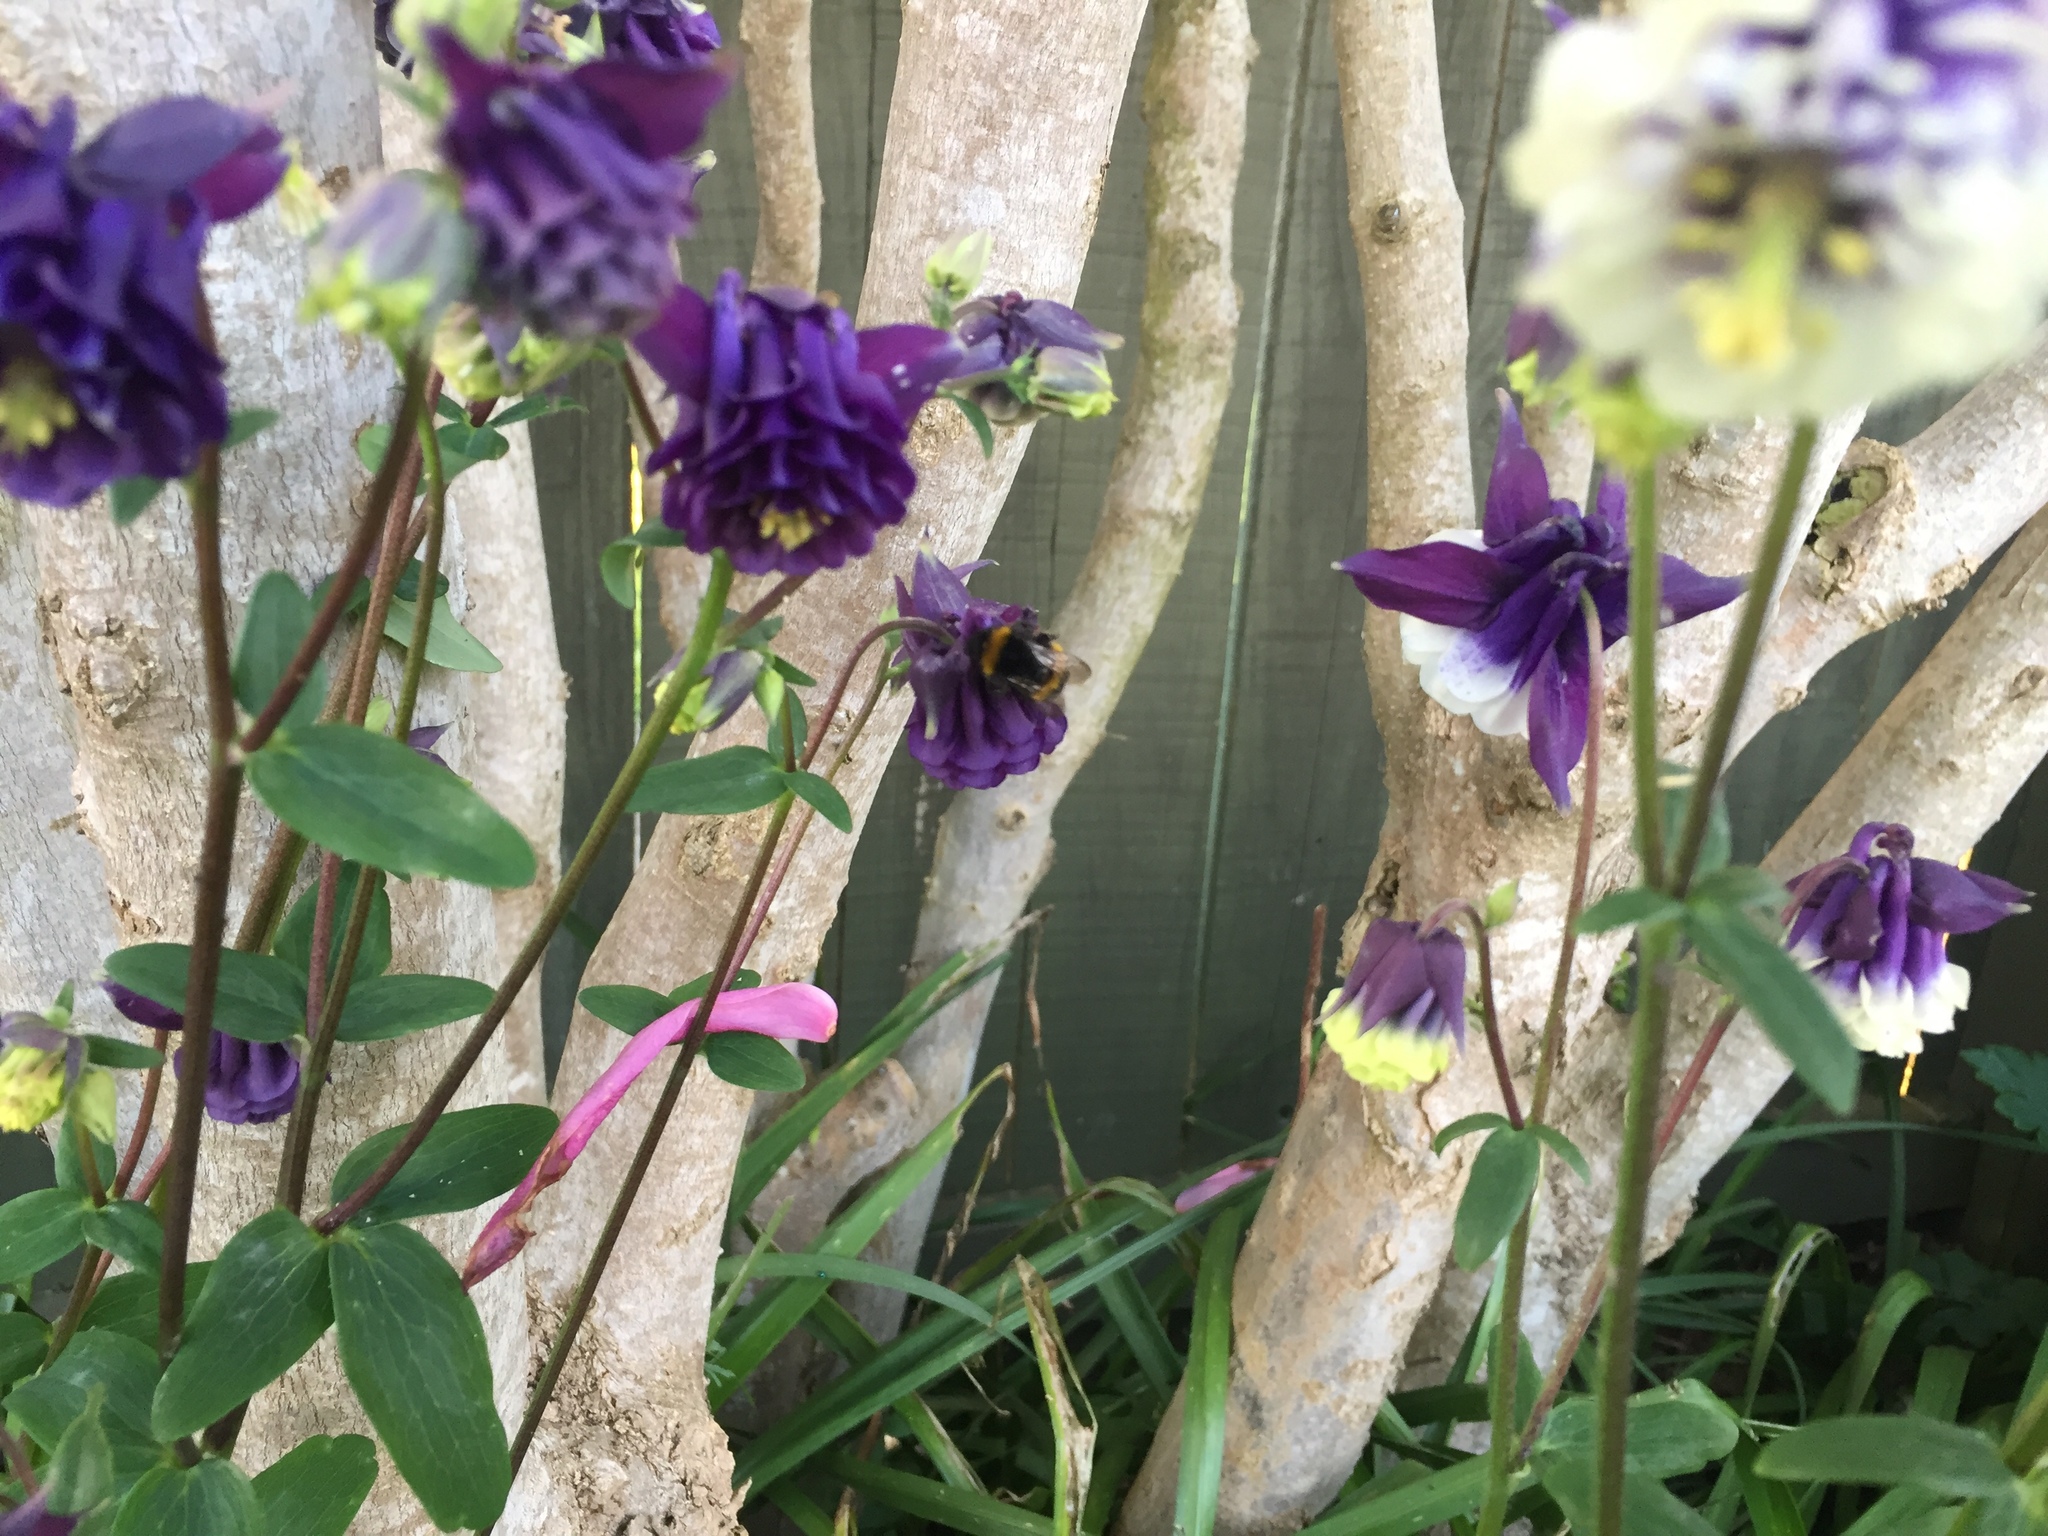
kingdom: Animalia
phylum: Arthropoda
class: Insecta
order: Hymenoptera
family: Apidae
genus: Bombus
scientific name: Bombus terrestris
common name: Buff-tailed bumblebee
